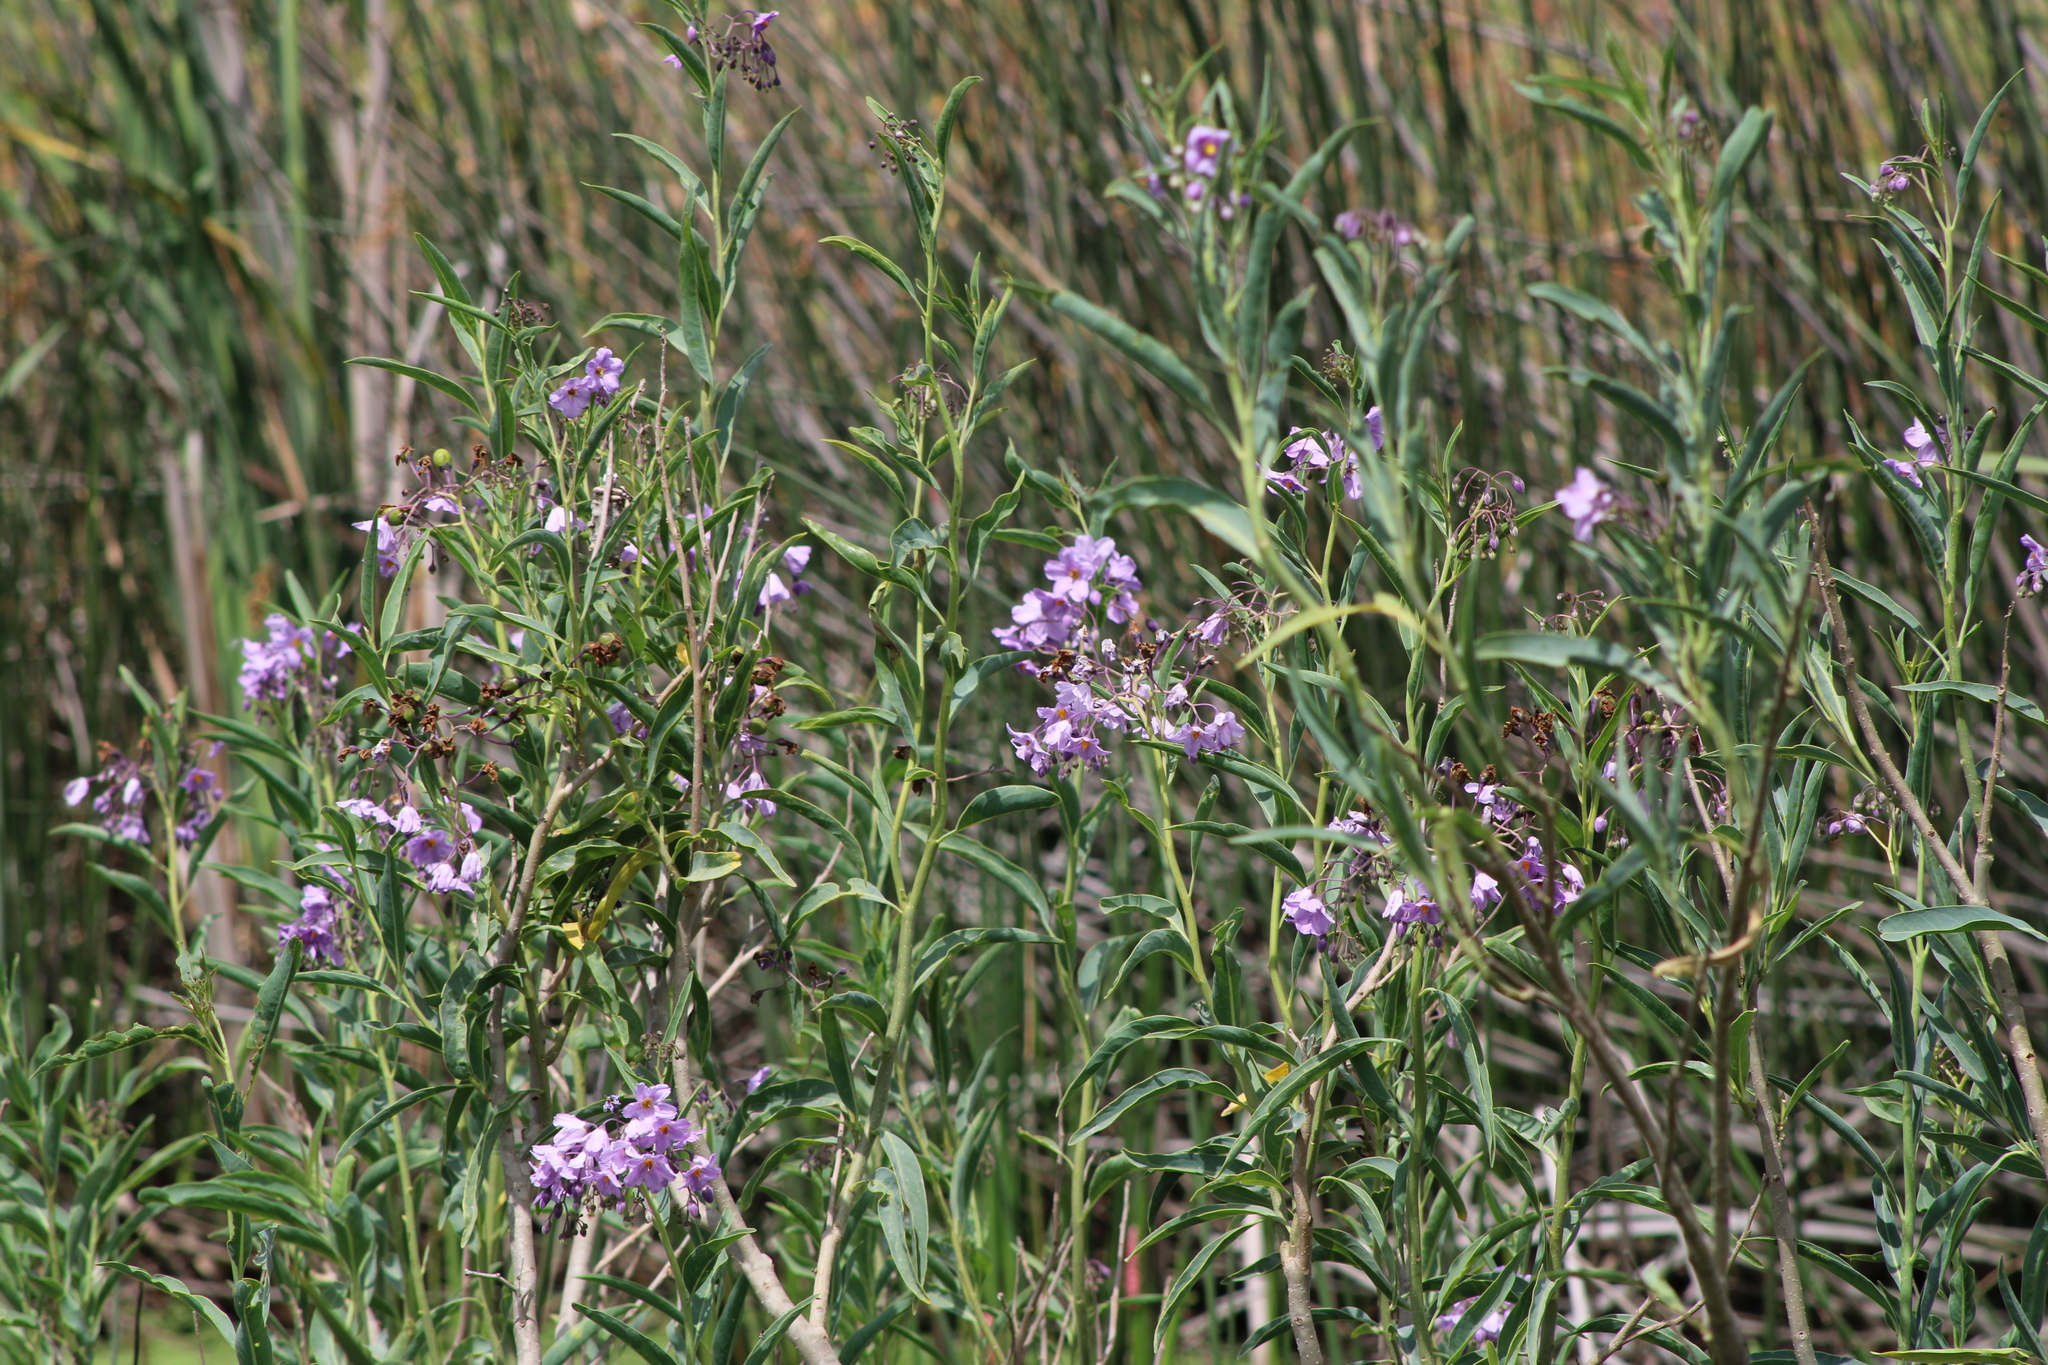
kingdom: Plantae
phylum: Tracheophyta
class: Magnoliopsida
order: Solanales
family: Solanaceae
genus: Solanum
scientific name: Solanum glaucophyllum
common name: Waxyleaf nightshade
